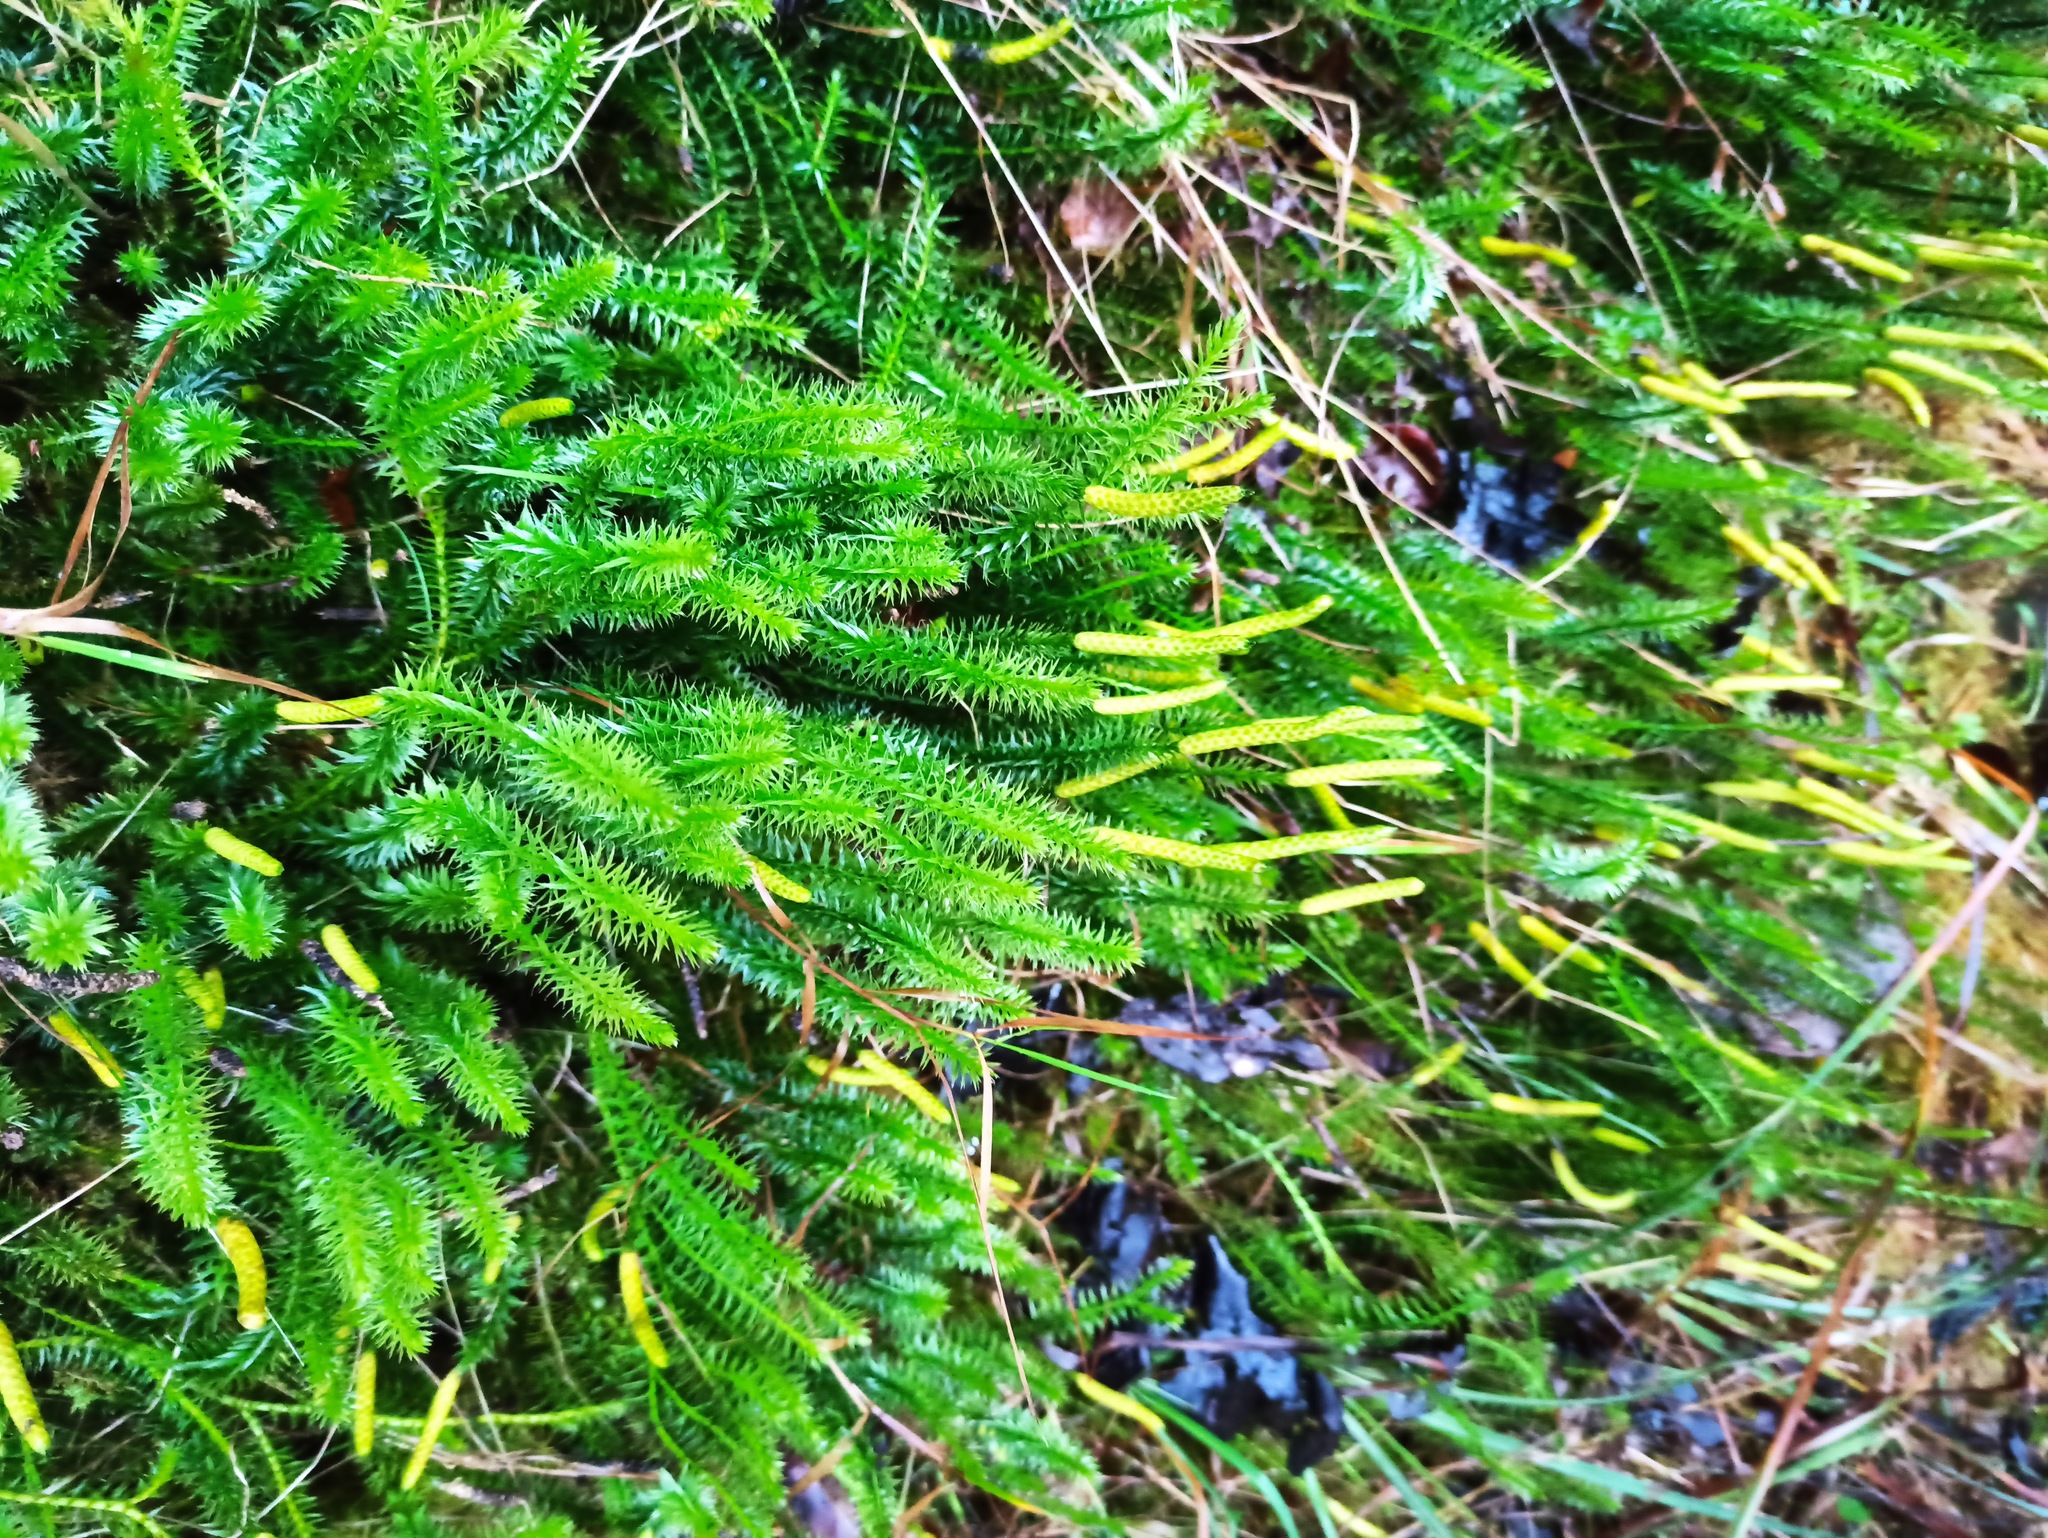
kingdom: Plantae
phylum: Tracheophyta
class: Lycopodiopsida
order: Lycopodiales
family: Lycopodiaceae
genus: Spinulum
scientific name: Spinulum annotinum
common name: Interrupted club-moss
